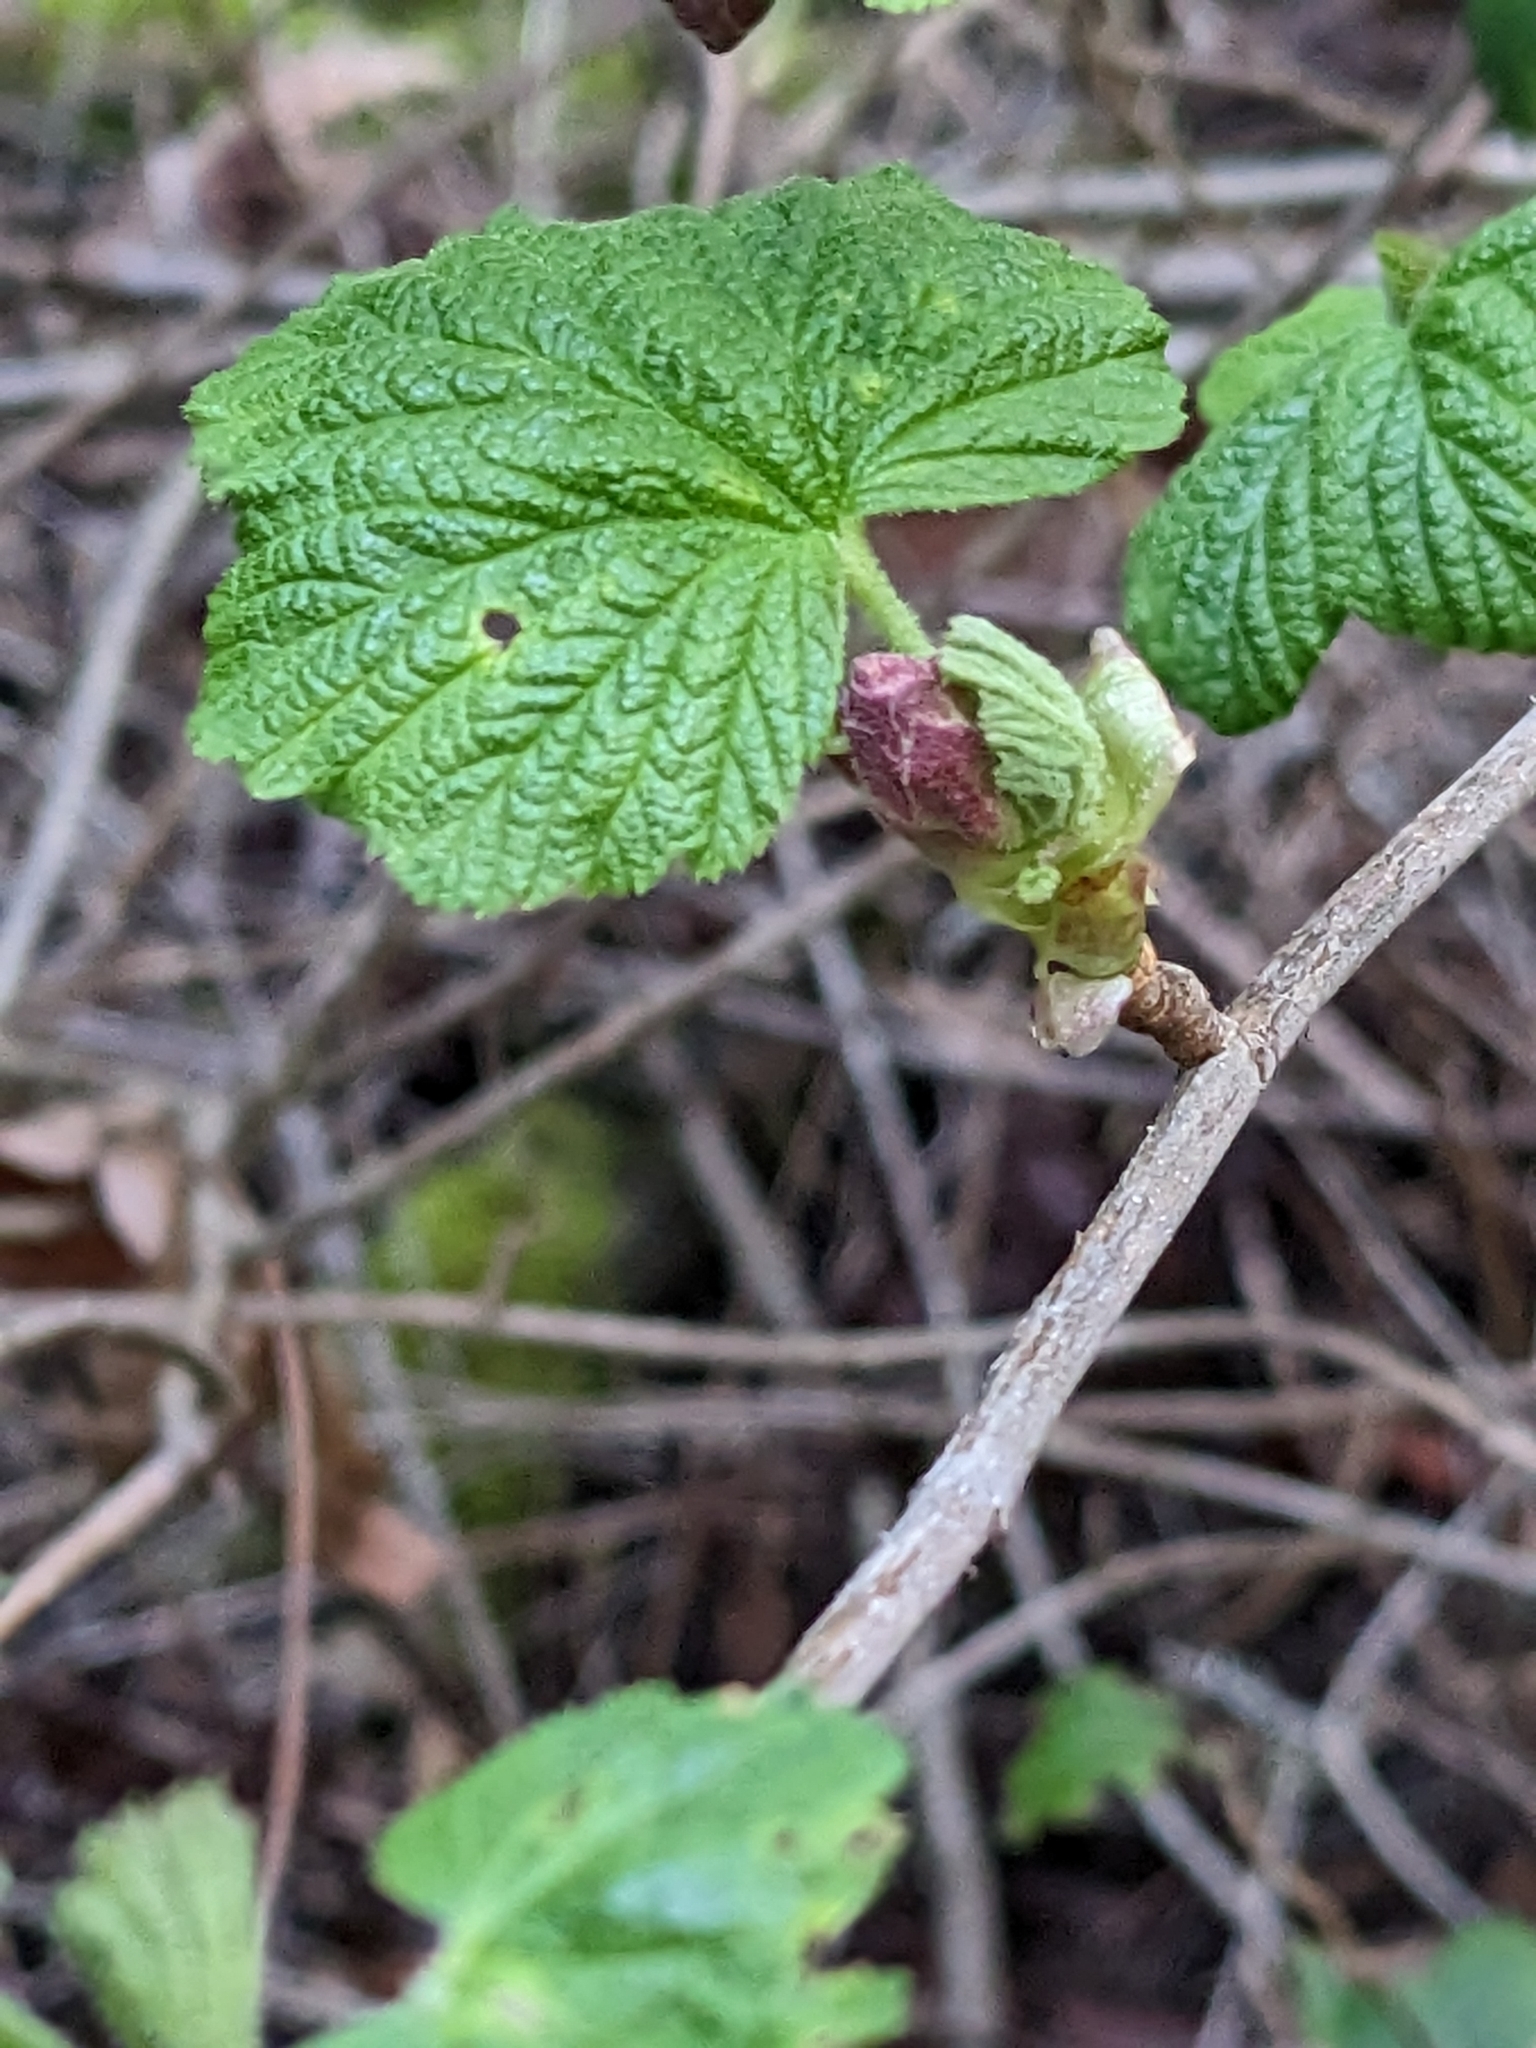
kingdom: Plantae
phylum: Tracheophyta
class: Magnoliopsida
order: Saxifragales
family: Grossulariaceae
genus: Ribes
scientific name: Ribes sanguineum
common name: Flowering currant
